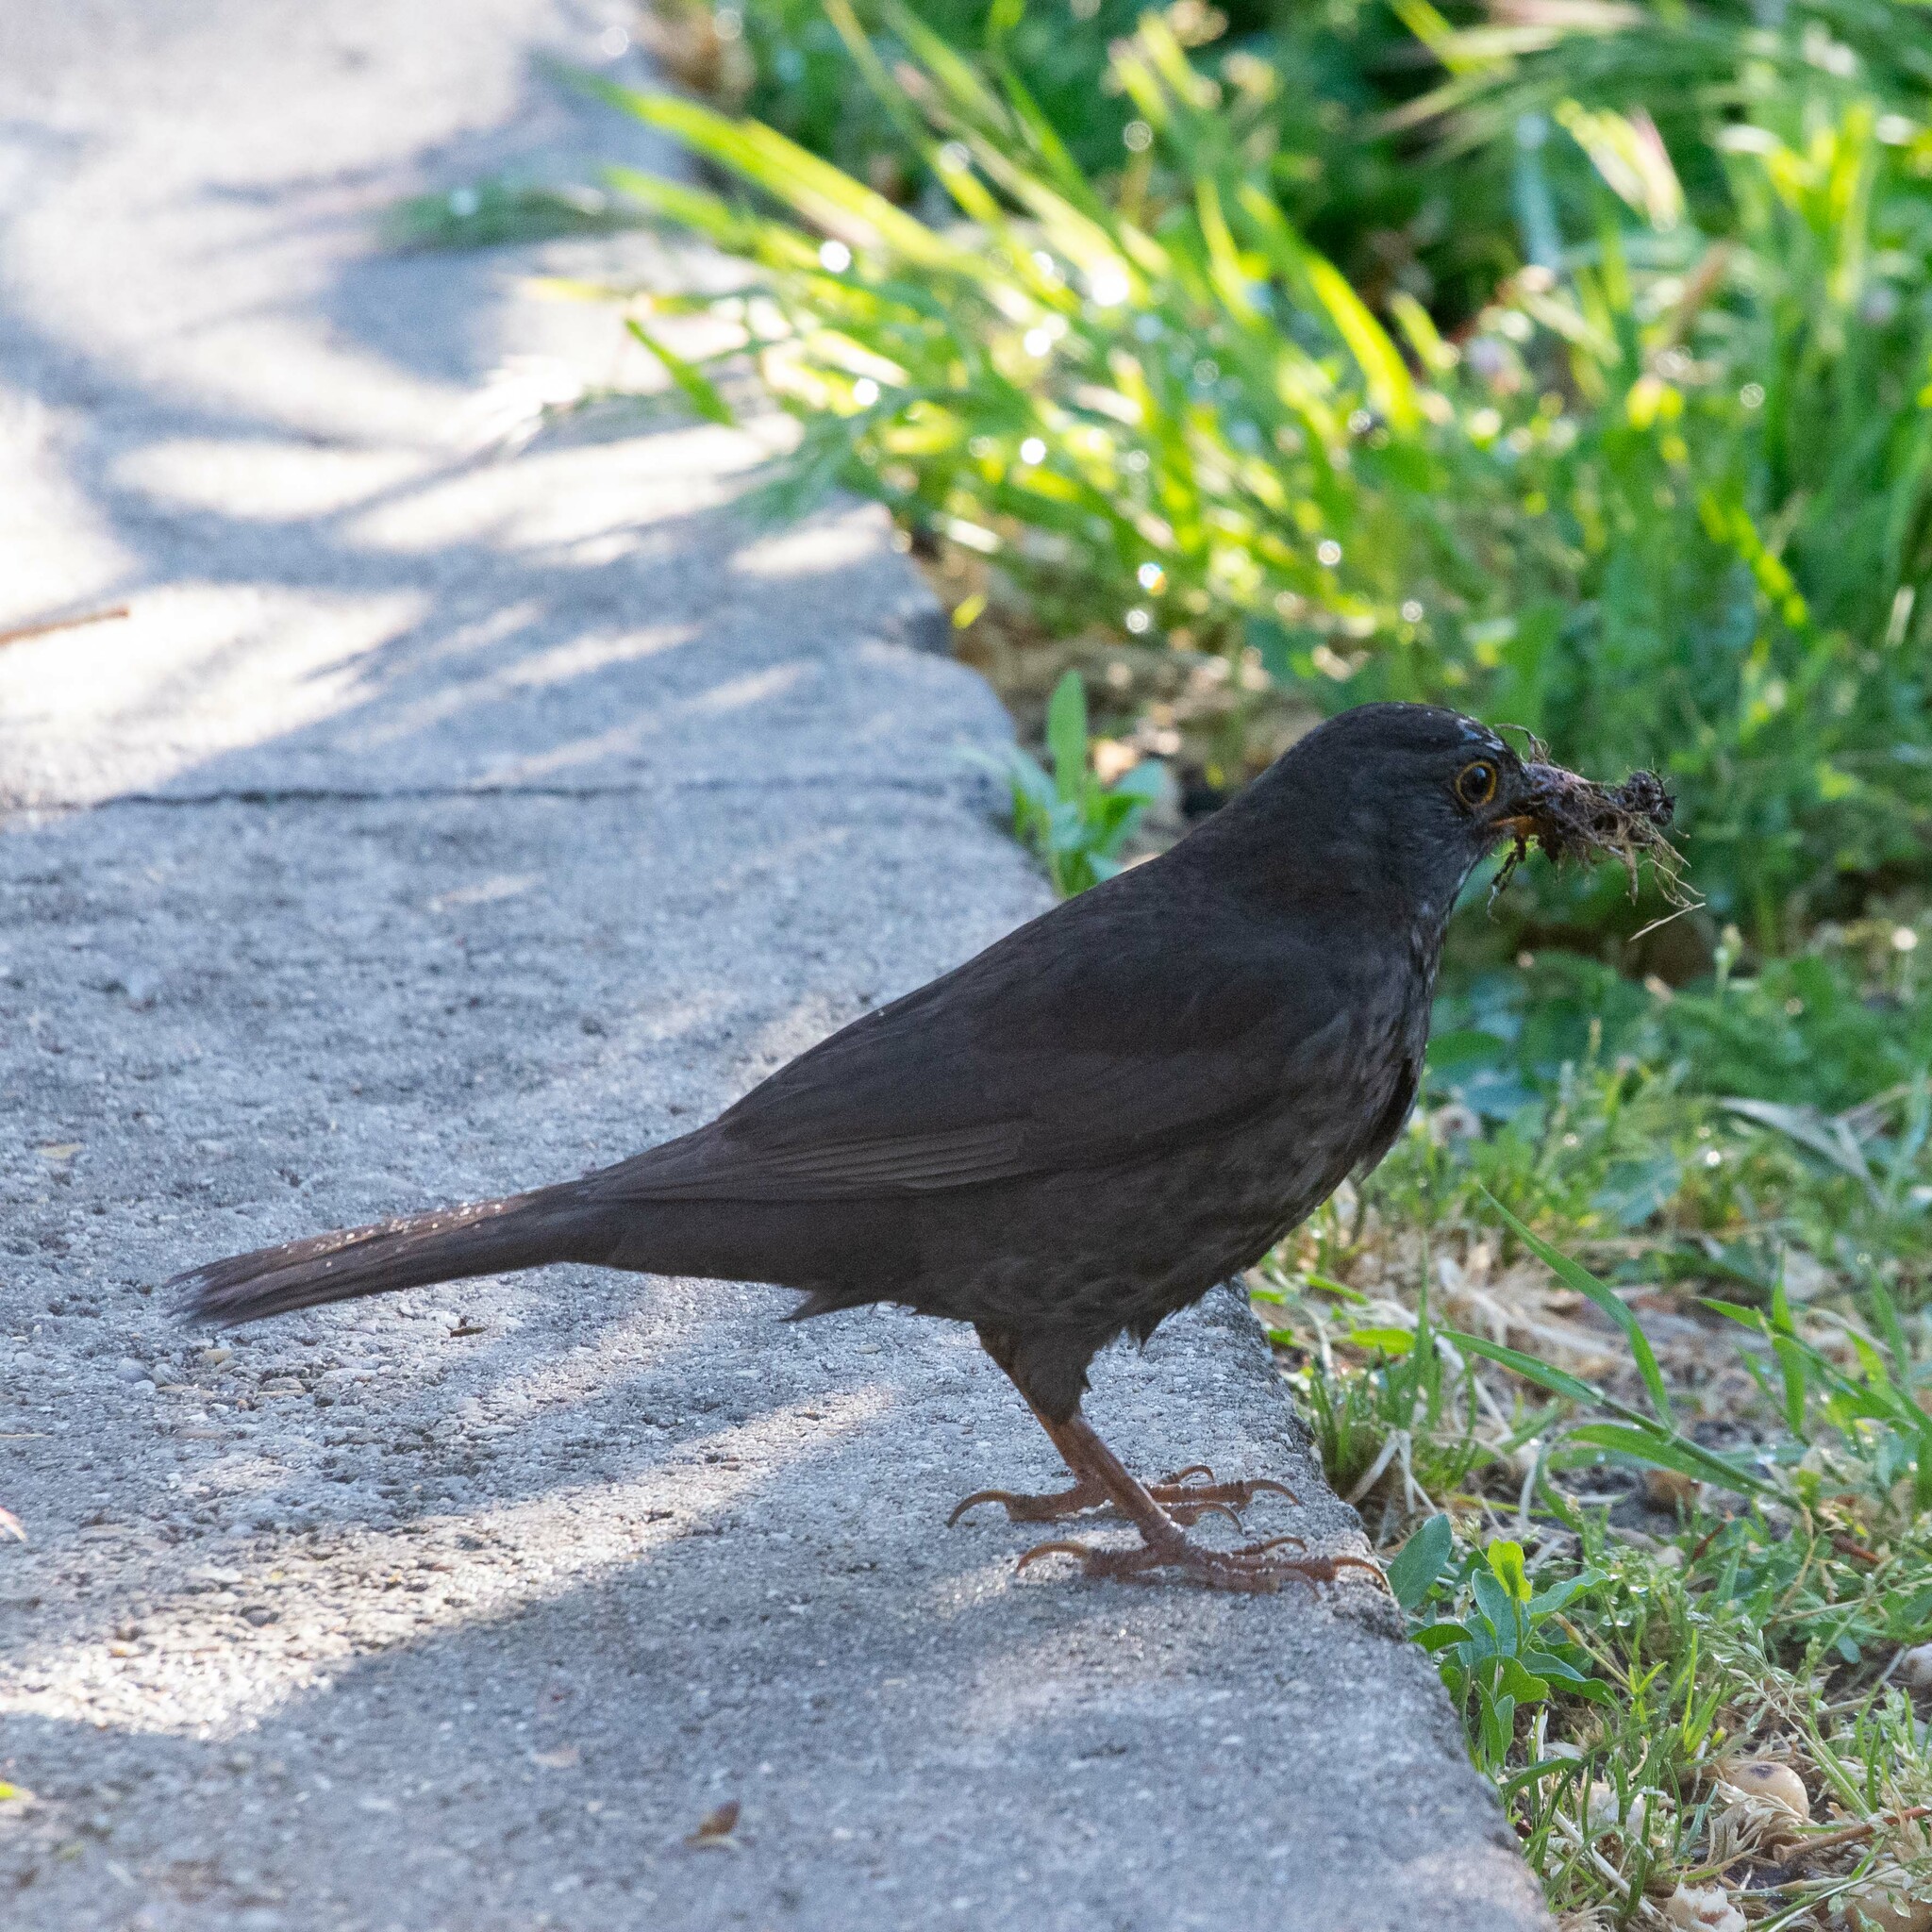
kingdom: Animalia
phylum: Chordata
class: Aves
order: Passeriformes
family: Turdidae
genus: Turdus
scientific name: Turdus merula
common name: Common blackbird
